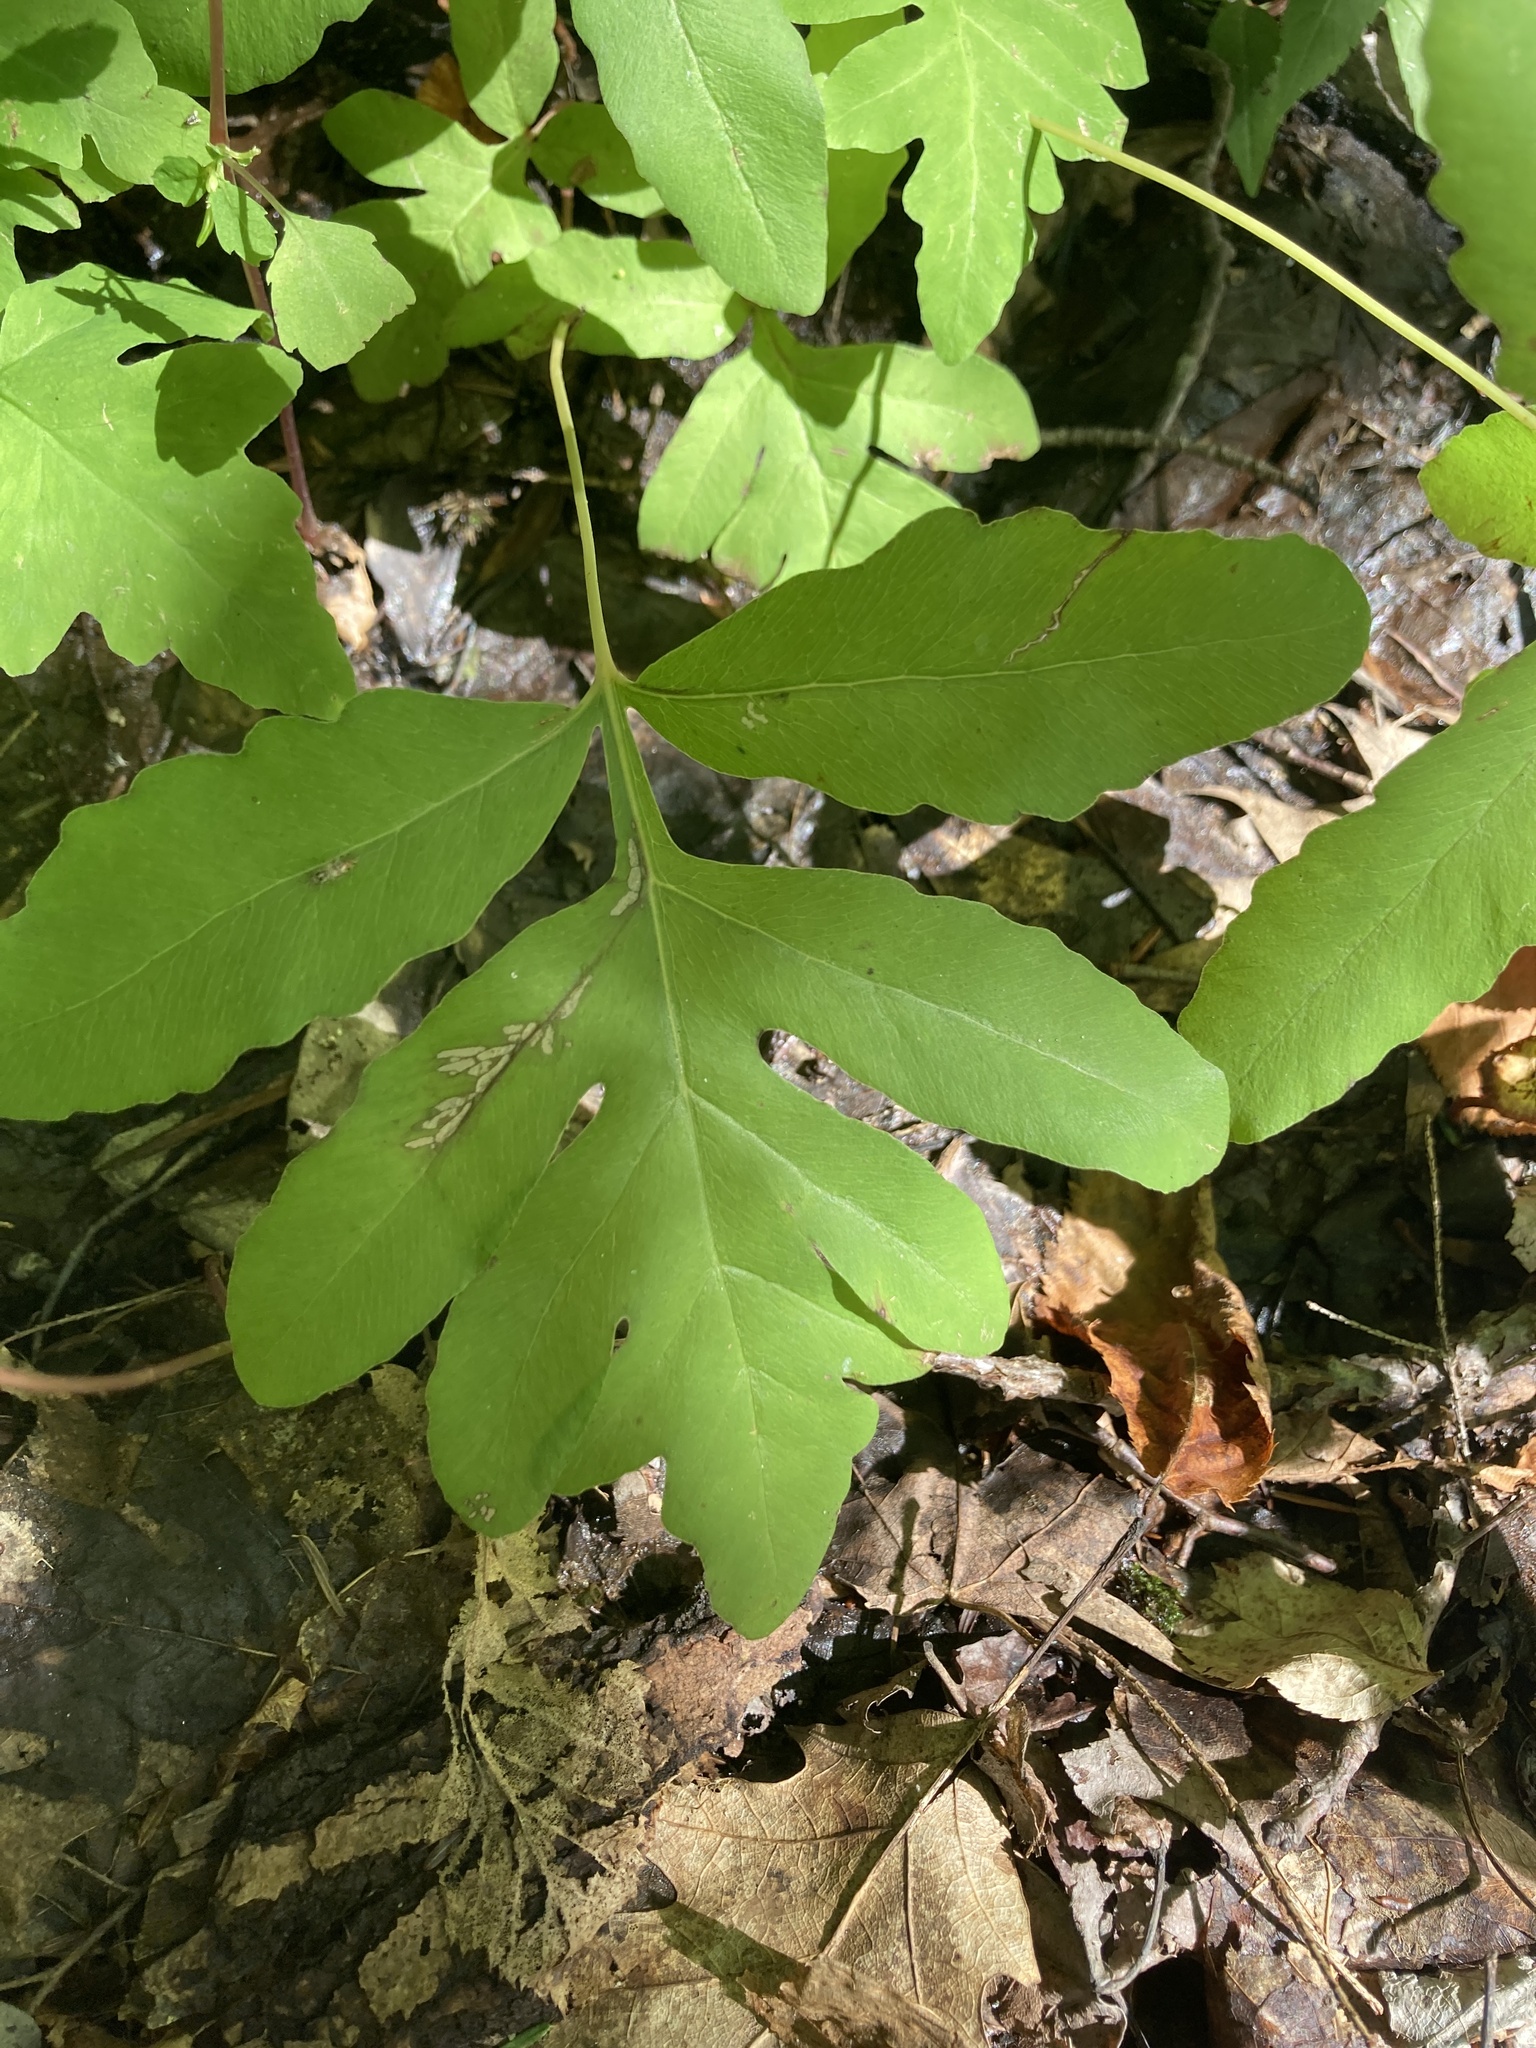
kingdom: Plantae
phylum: Tracheophyta
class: Polypodiopsida
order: Polypodiales
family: Onocleaceae
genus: Onoclea
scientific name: Onoclea sensibilis
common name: Sensitive fern
